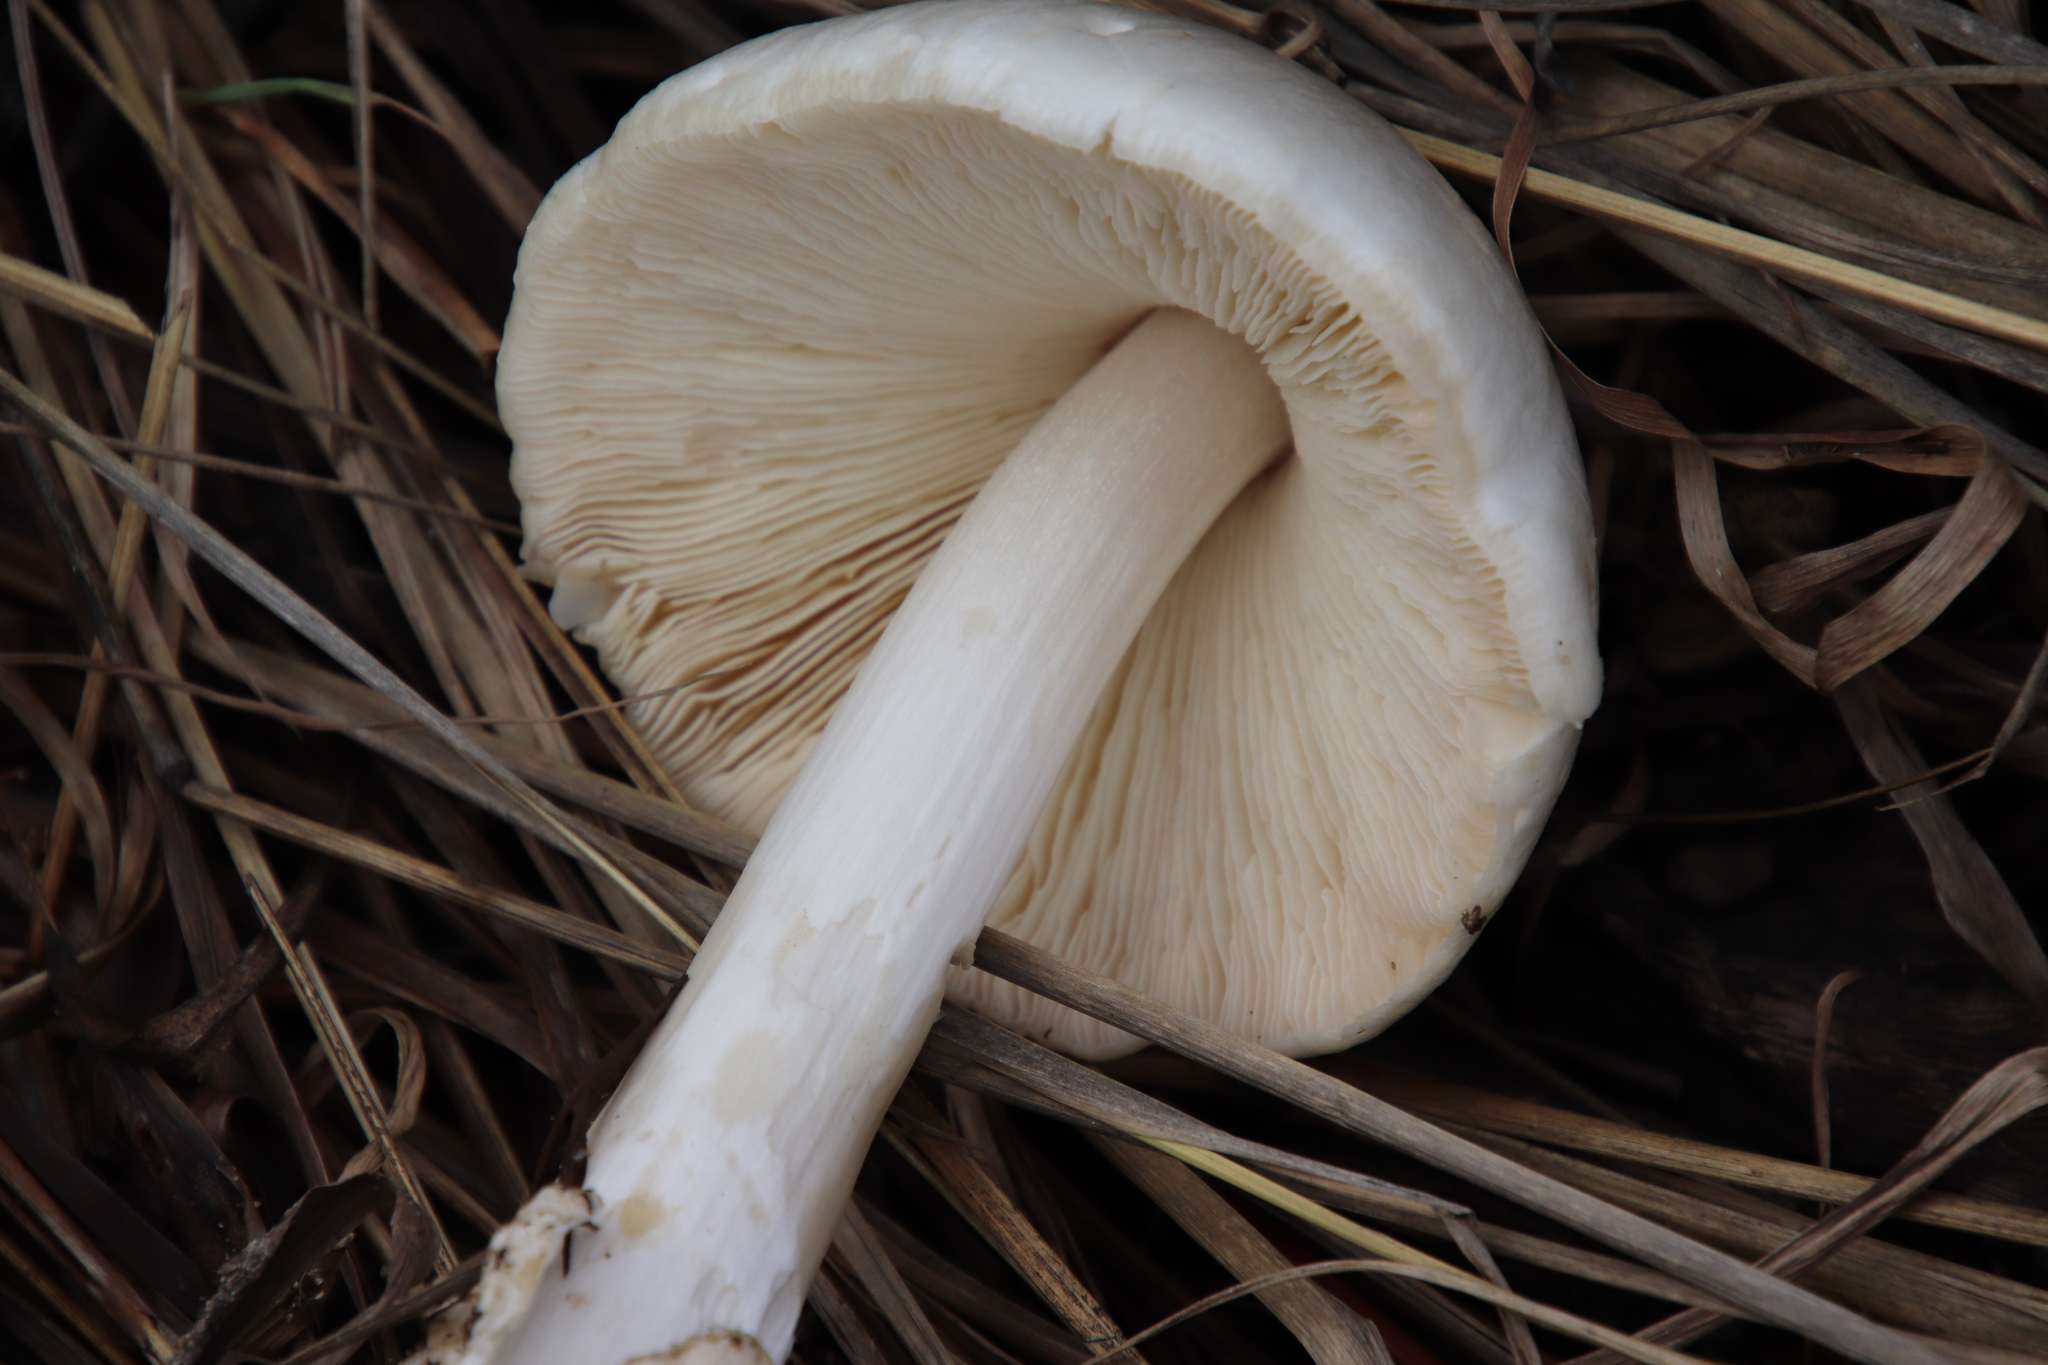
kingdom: Fungi
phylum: Basidiomycota
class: Agaricomycetes
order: Agaricales
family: Pluteaceae
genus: Volvopluteus
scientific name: Volvopluteus gloiocephalus
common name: Stubble rosegill
